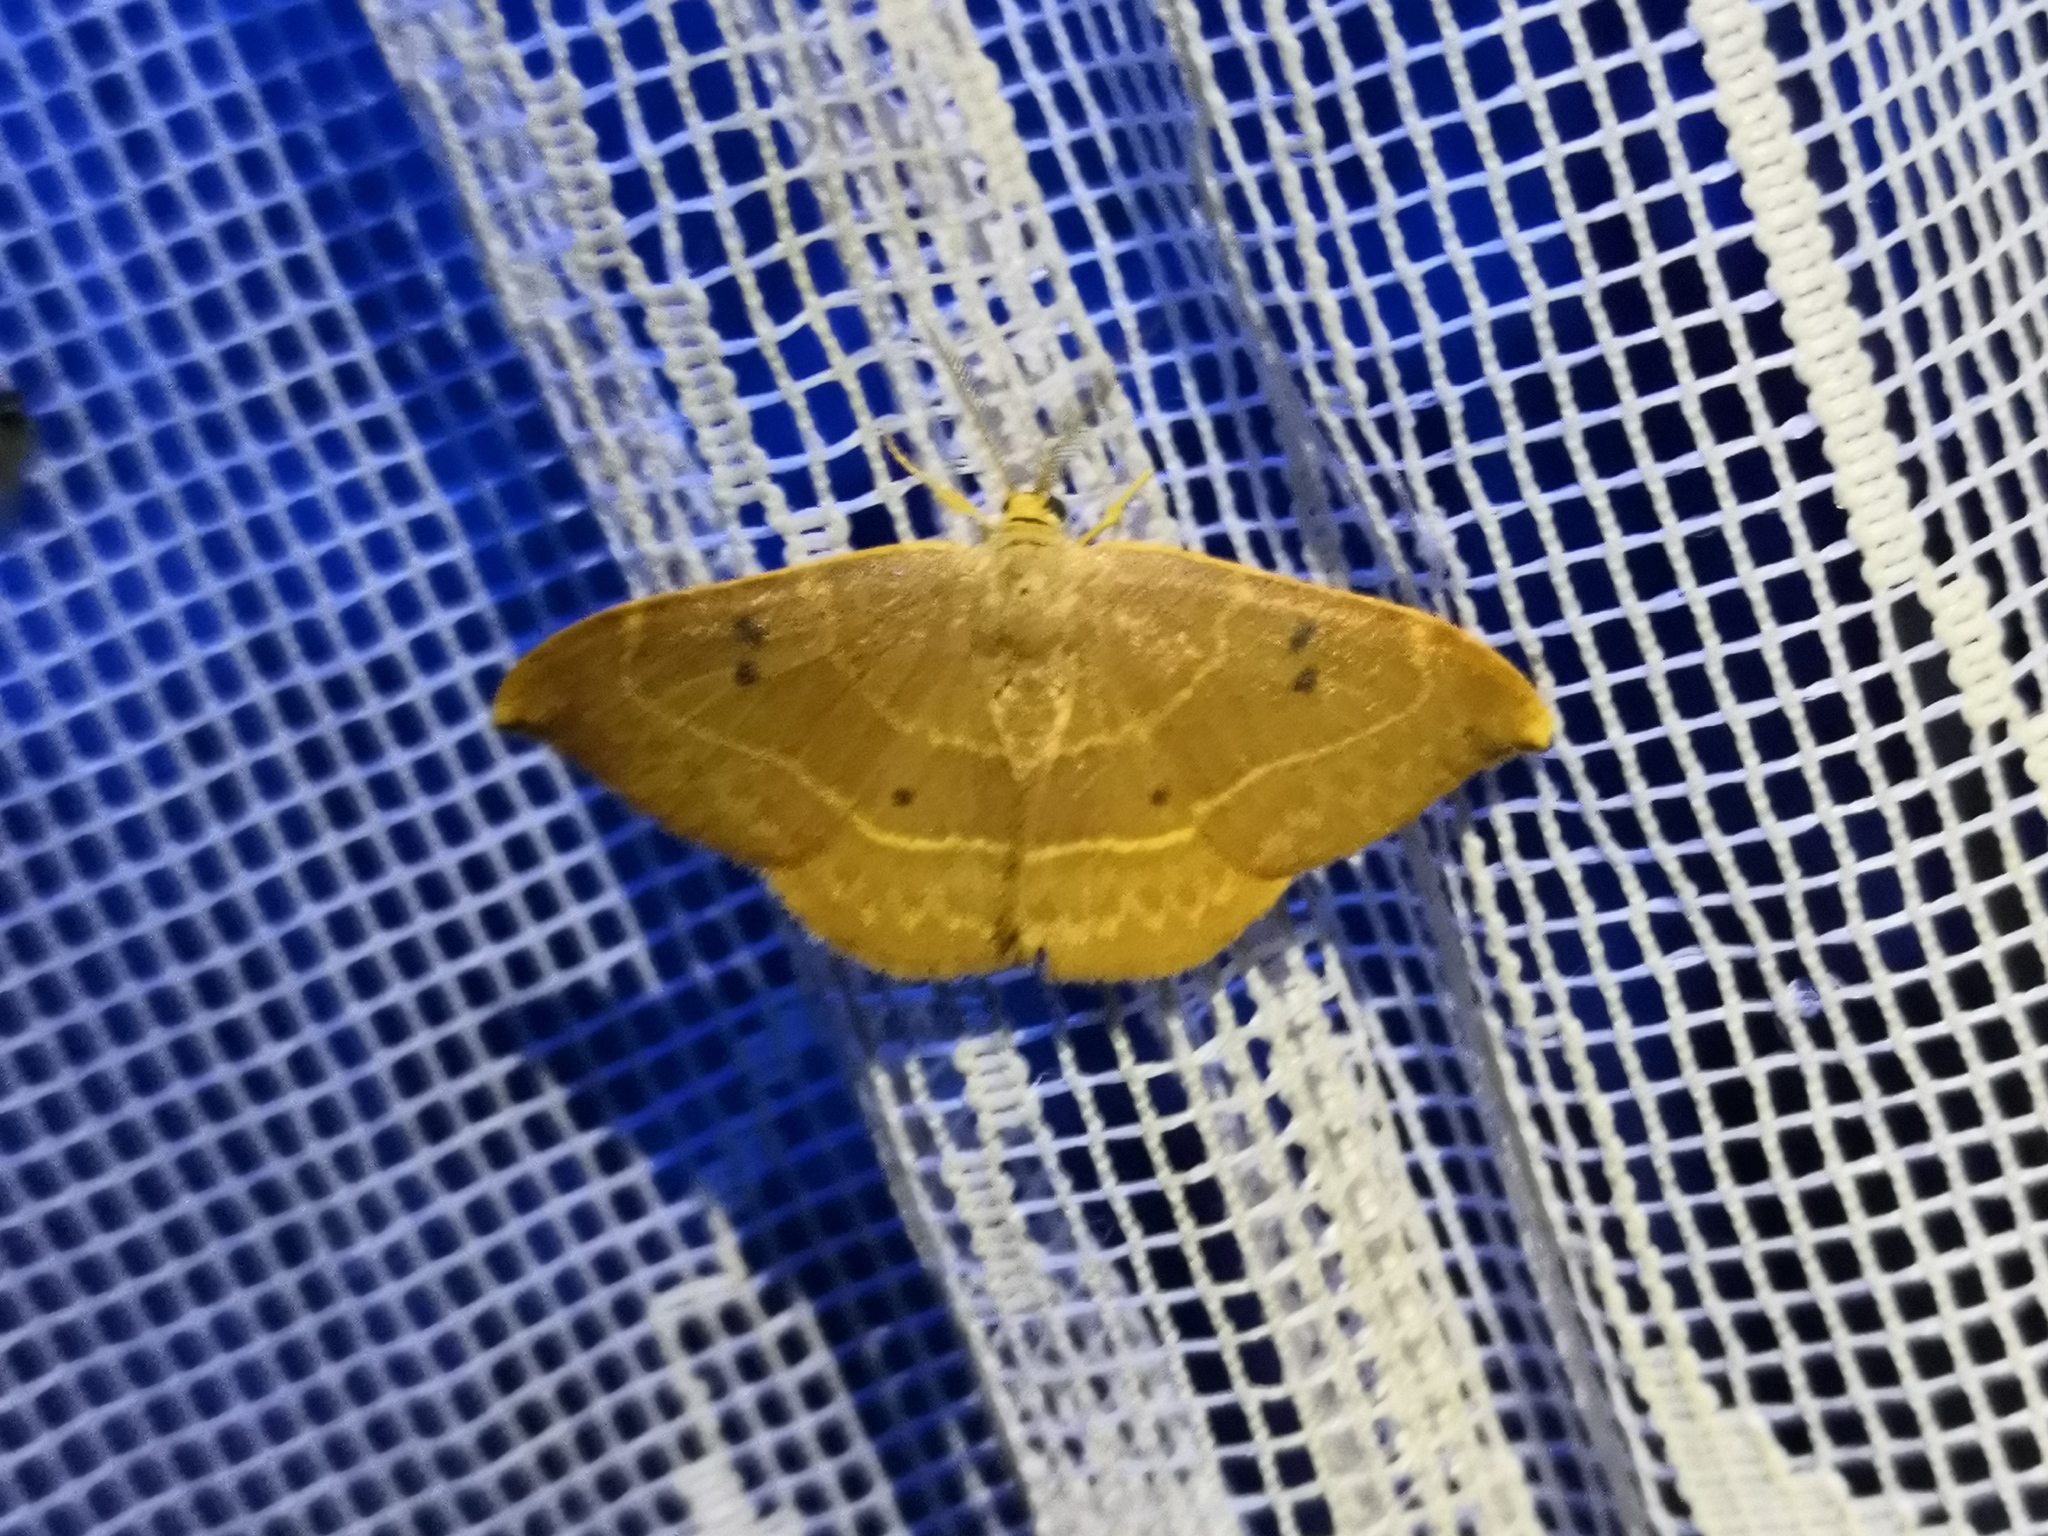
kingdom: Animalia
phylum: Arthropoda
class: Insecta
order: Lepidoptera
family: Drepanidae
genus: Watsonalla
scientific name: Watsonalla binaria
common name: Oak hook-tip
